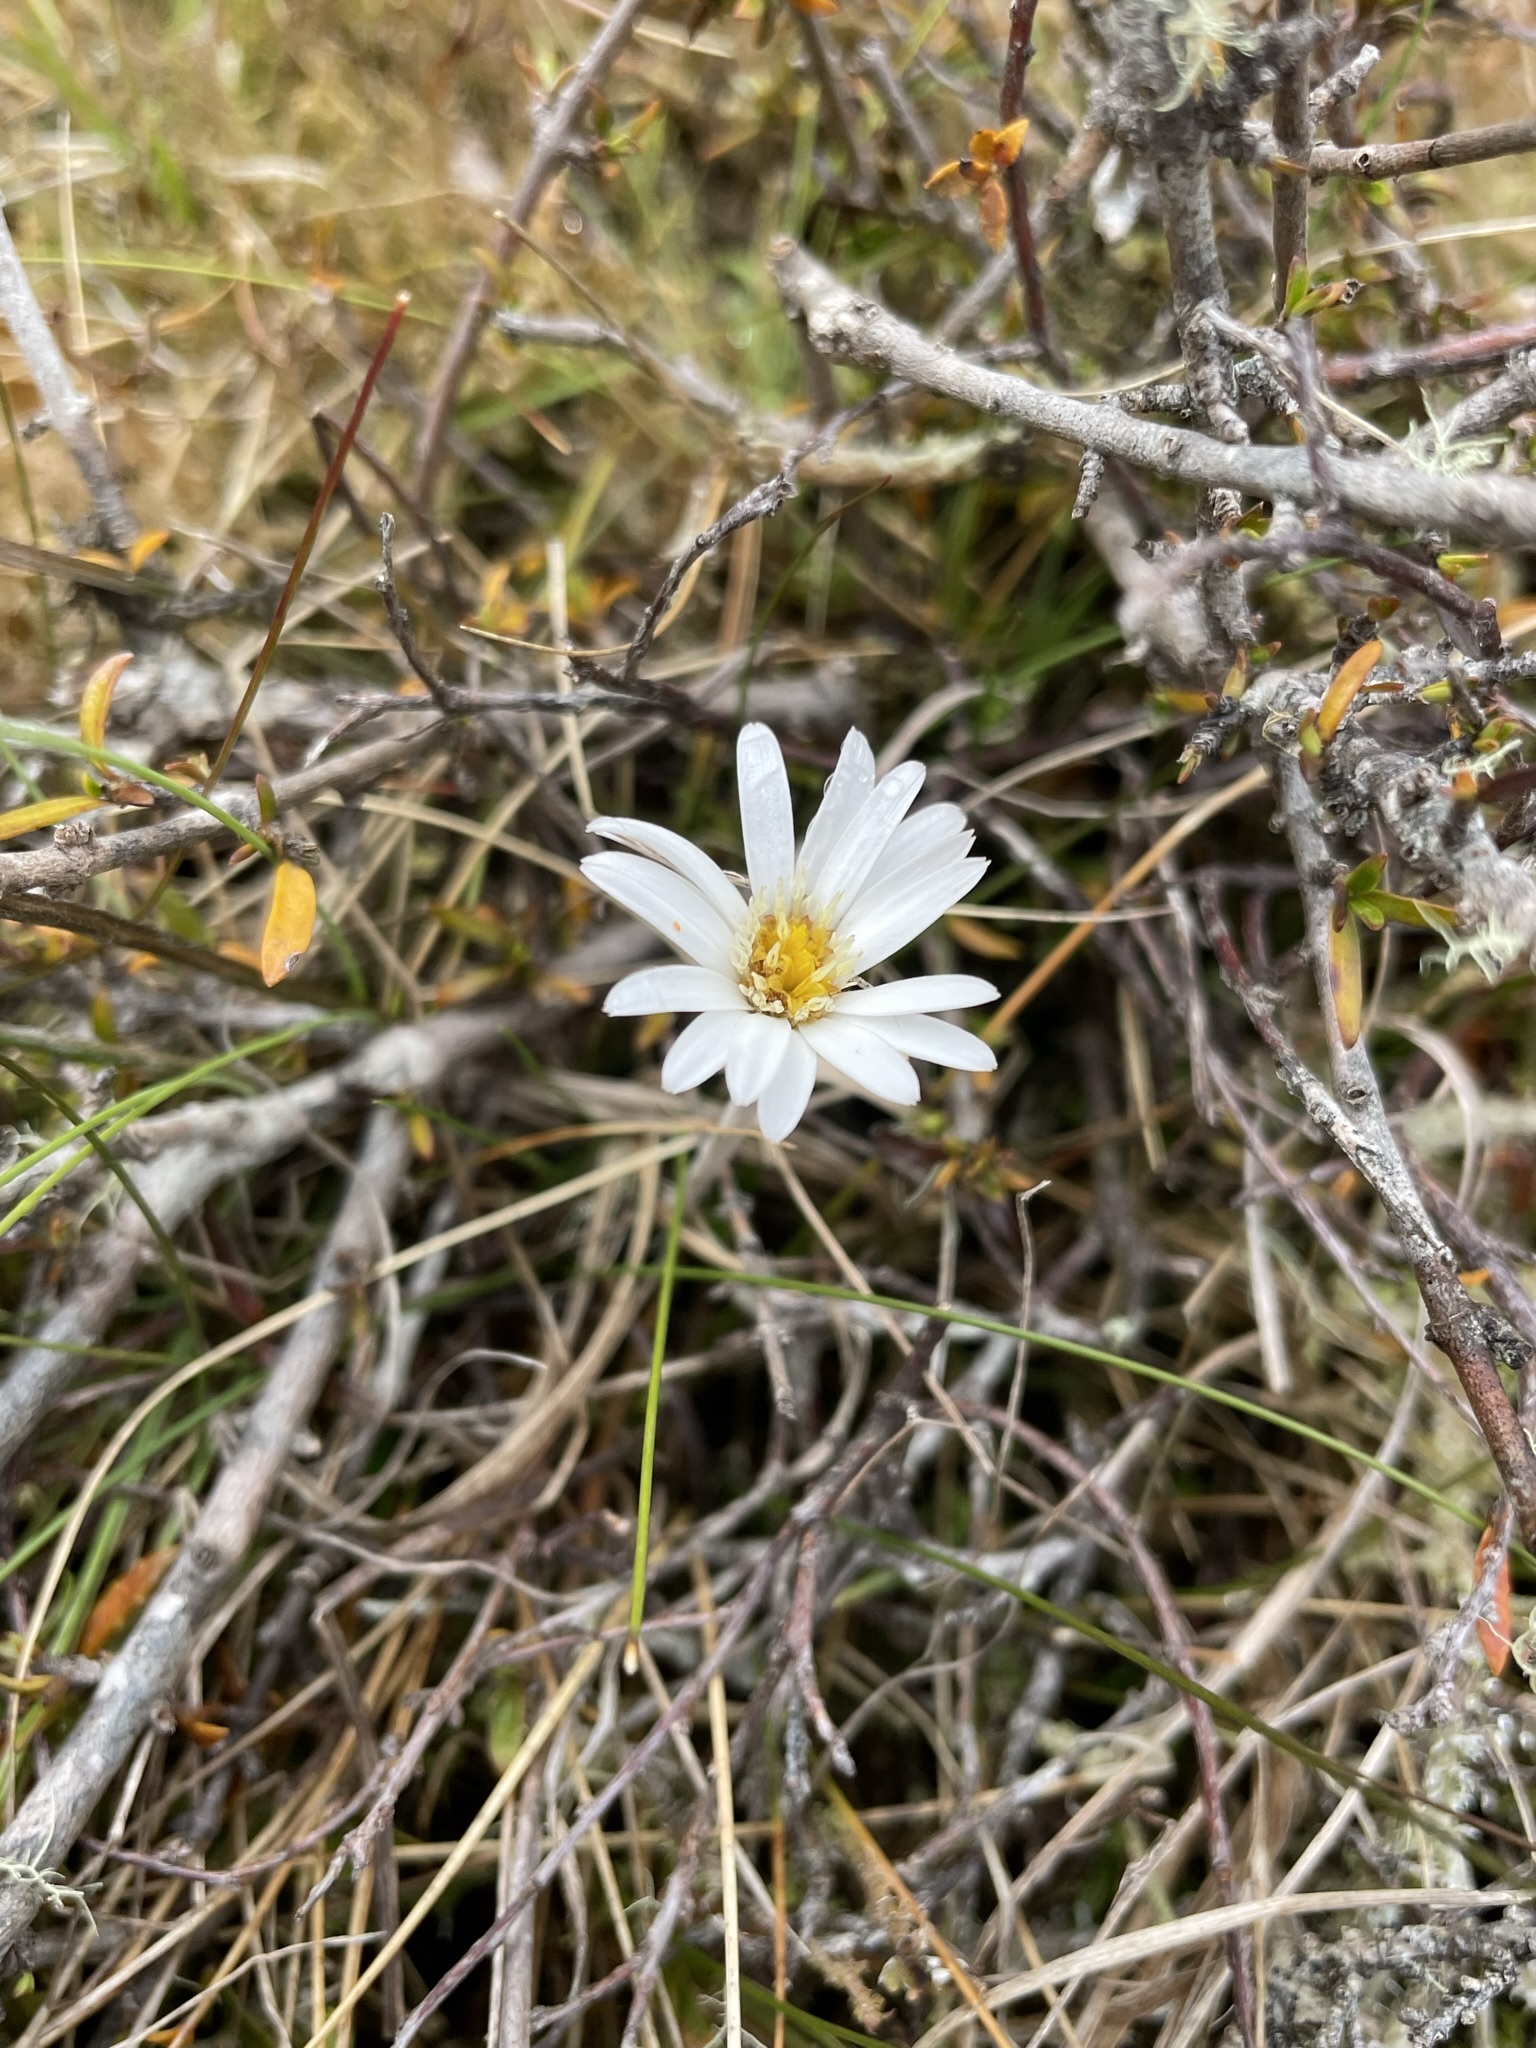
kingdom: Plantae
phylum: Tracheophyta
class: Magnoliopsida
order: Asterales
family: Asteraceae
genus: Celmisia
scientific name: Celmisia gracilenta
